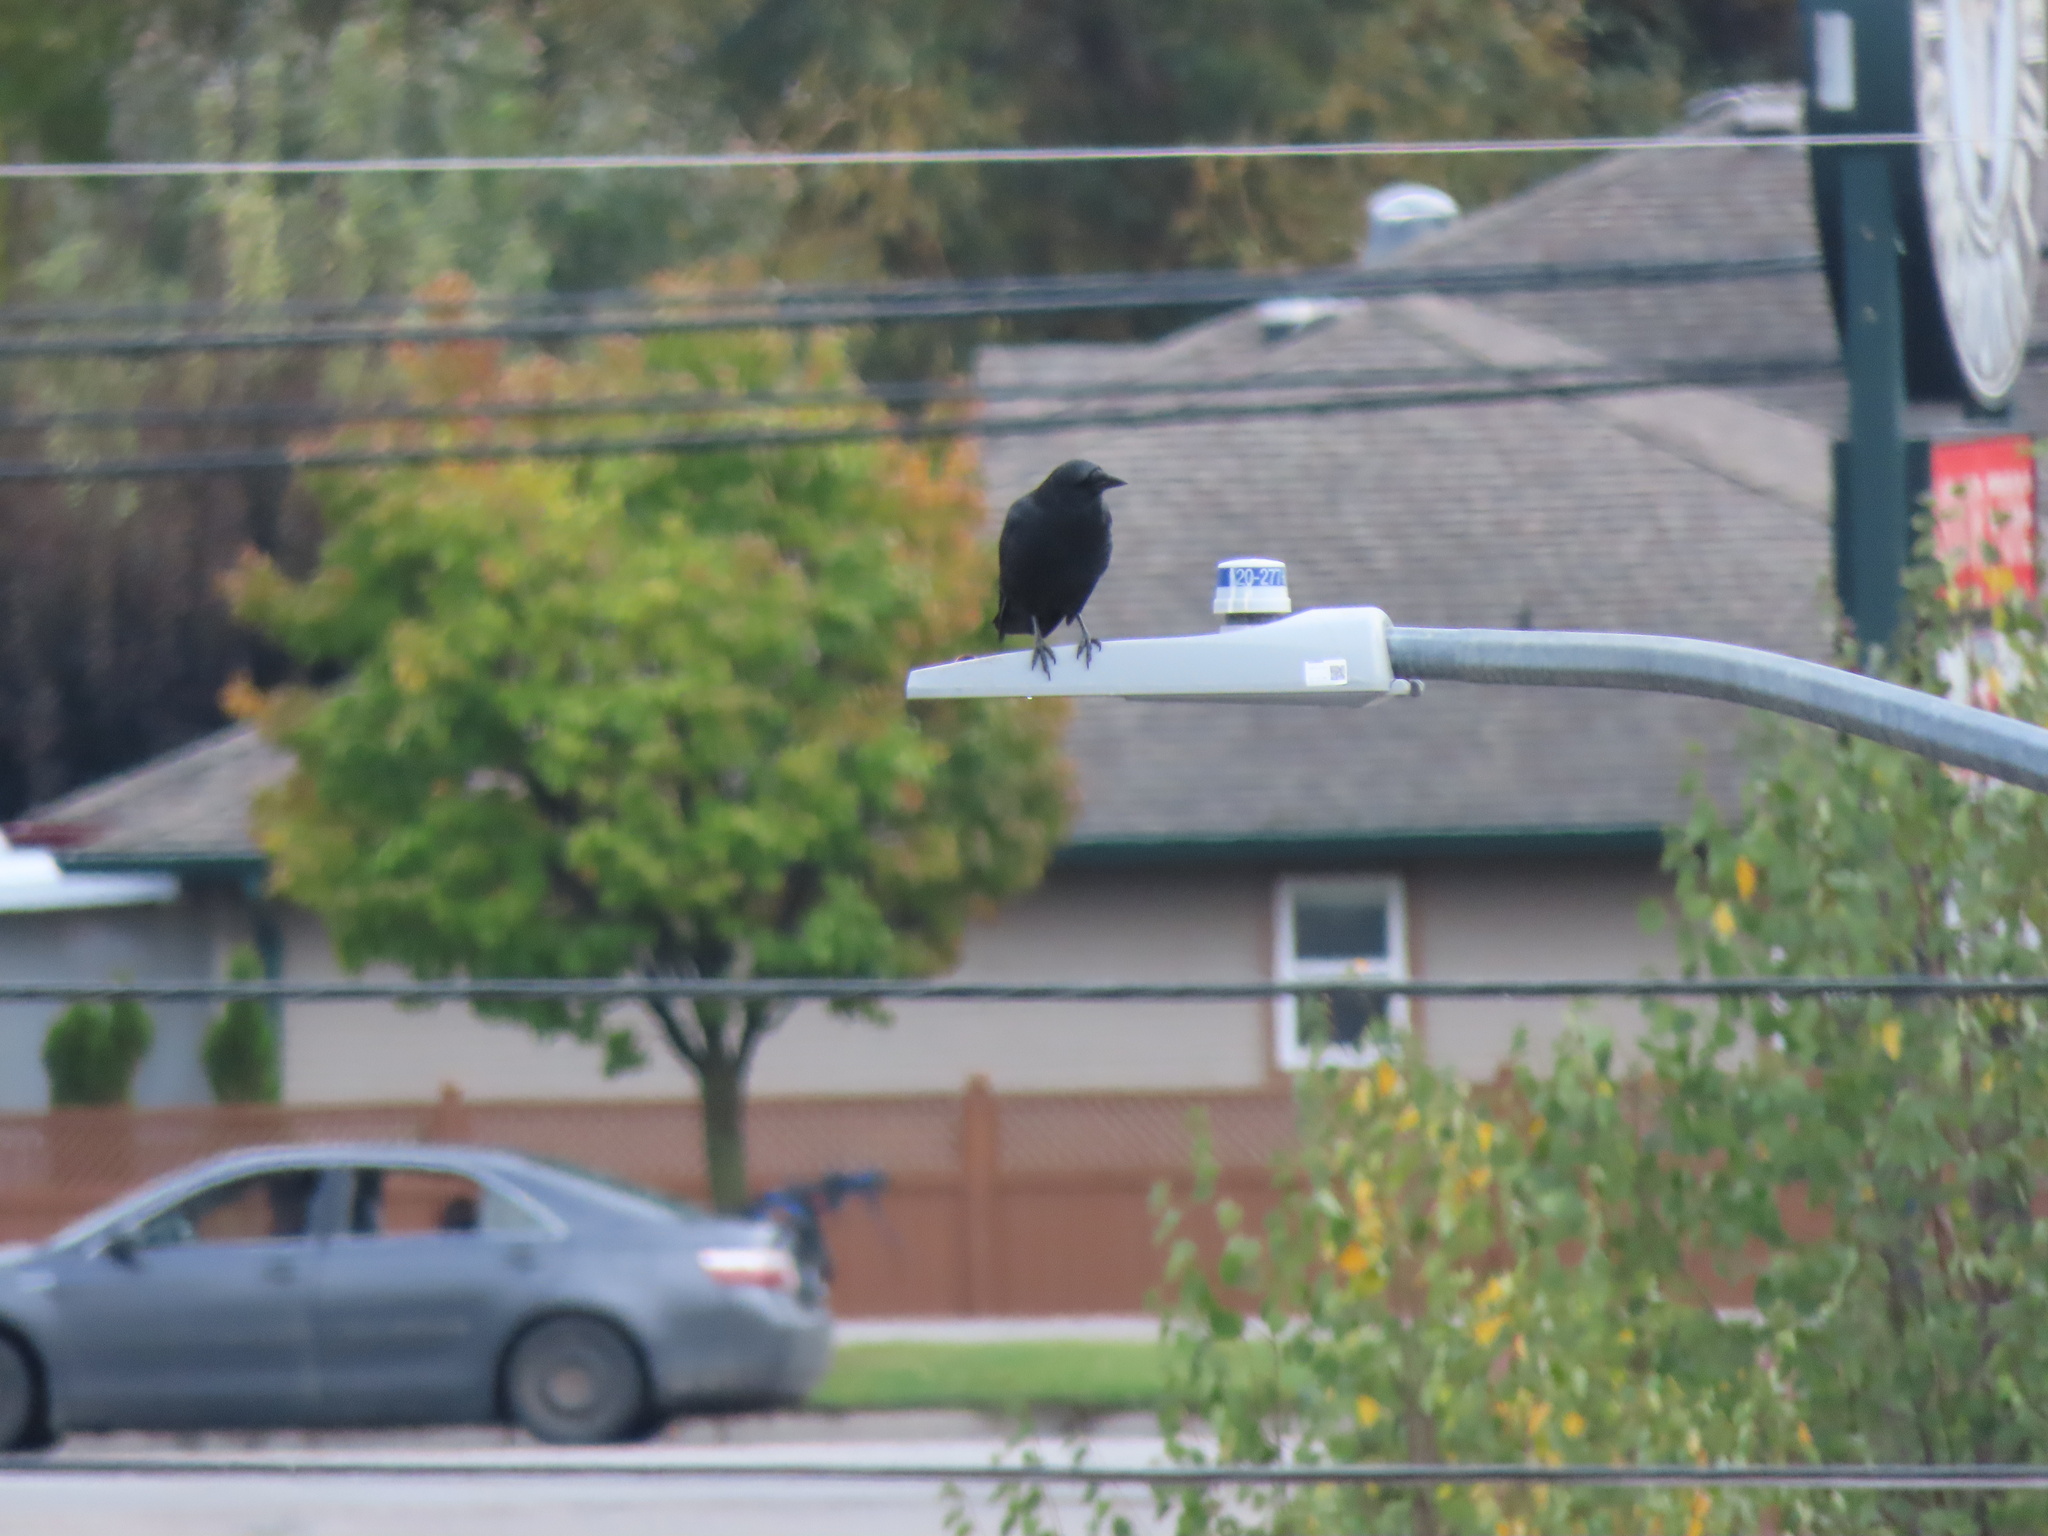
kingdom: Animalia
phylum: Chordata
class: Aves
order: Passeriformes
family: Corvidae
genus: Corvus
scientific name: Corvus brachyrhynchos
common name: American crow
